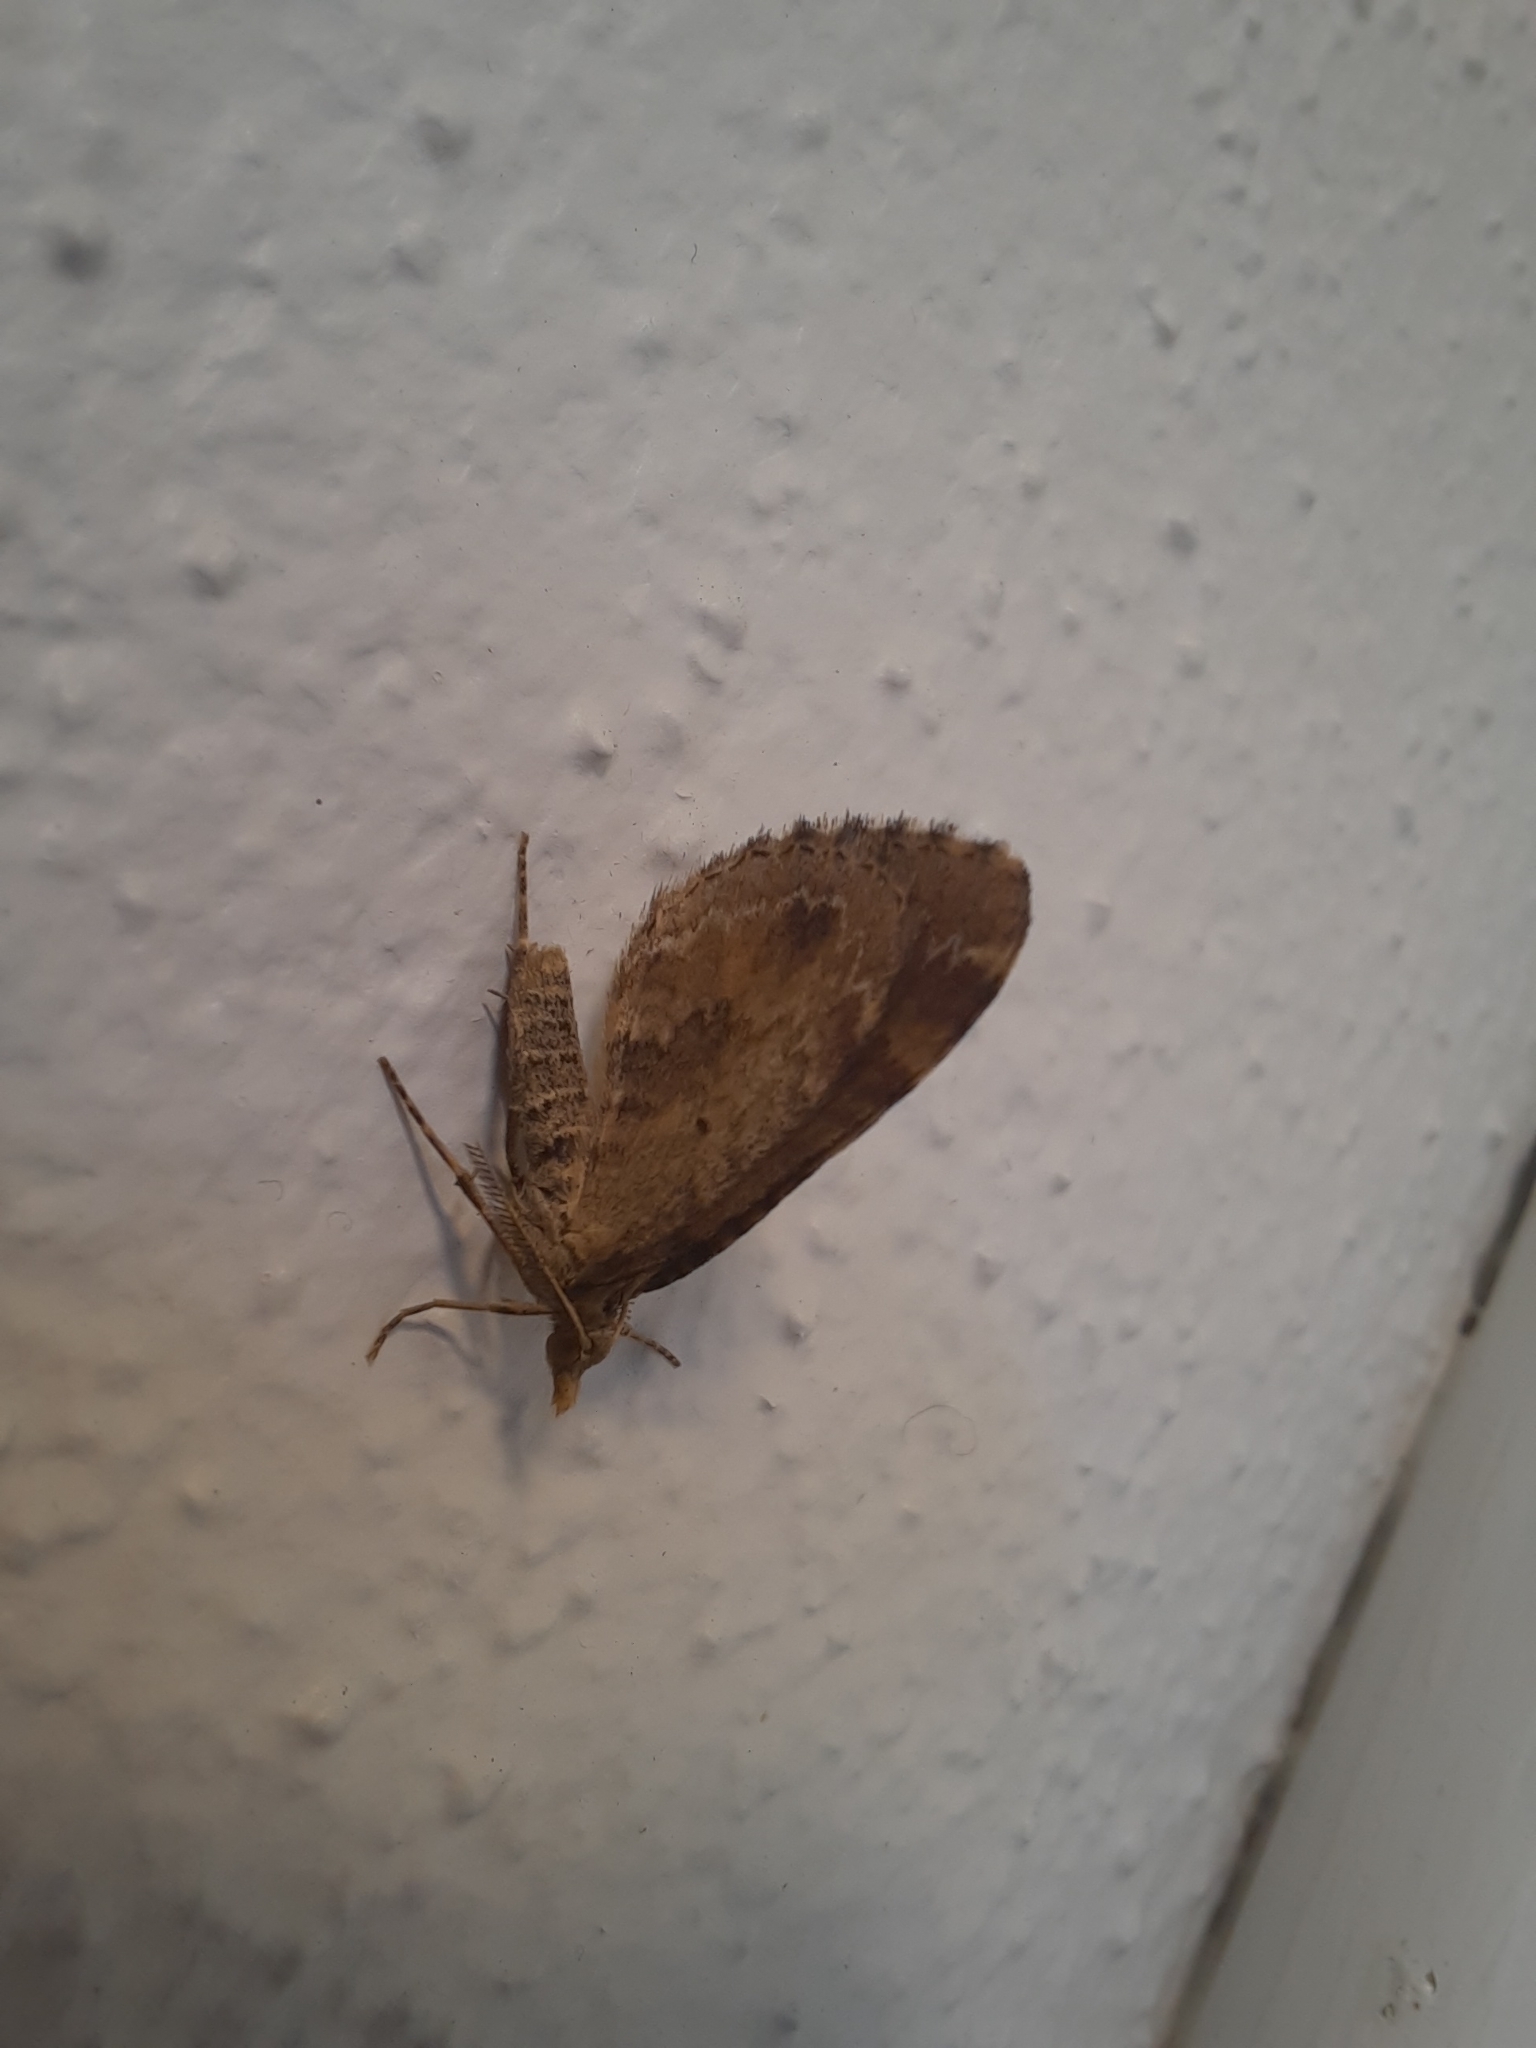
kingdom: Animalia
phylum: Arthropoda
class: Insecta
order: Lepidoptera
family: Geometridae
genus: Asaphodes
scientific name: Asaphodes aegrota
